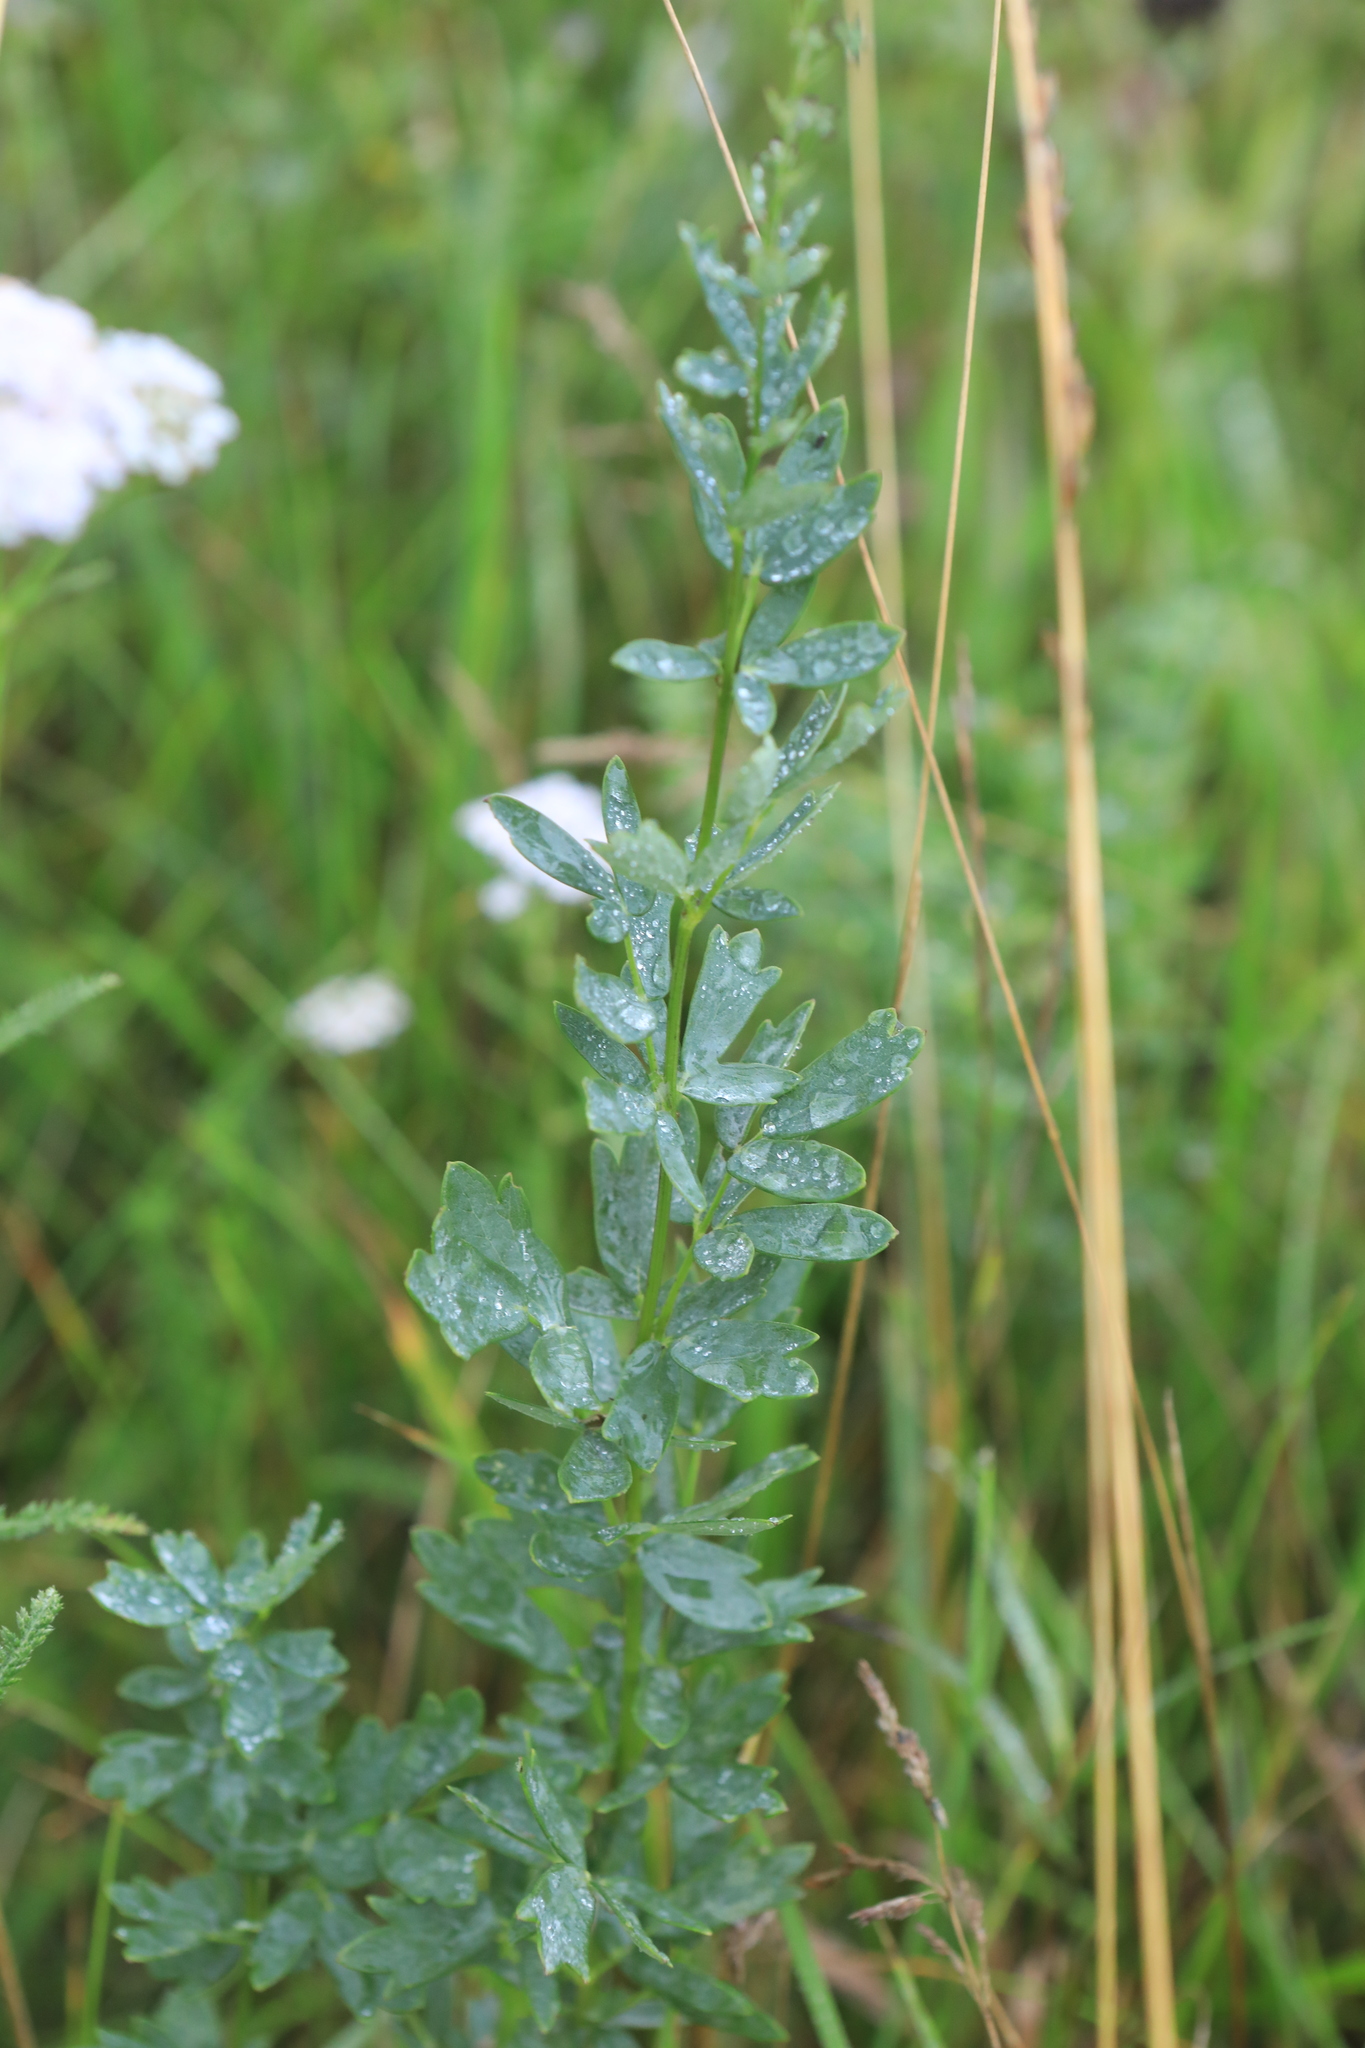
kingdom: Plantae
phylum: Tracheophyta
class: Magnoliopsida
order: Ranunculales
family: Ranunculaceae
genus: Thalictrum
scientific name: Thalictrum simplex
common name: Small meadow-rue
